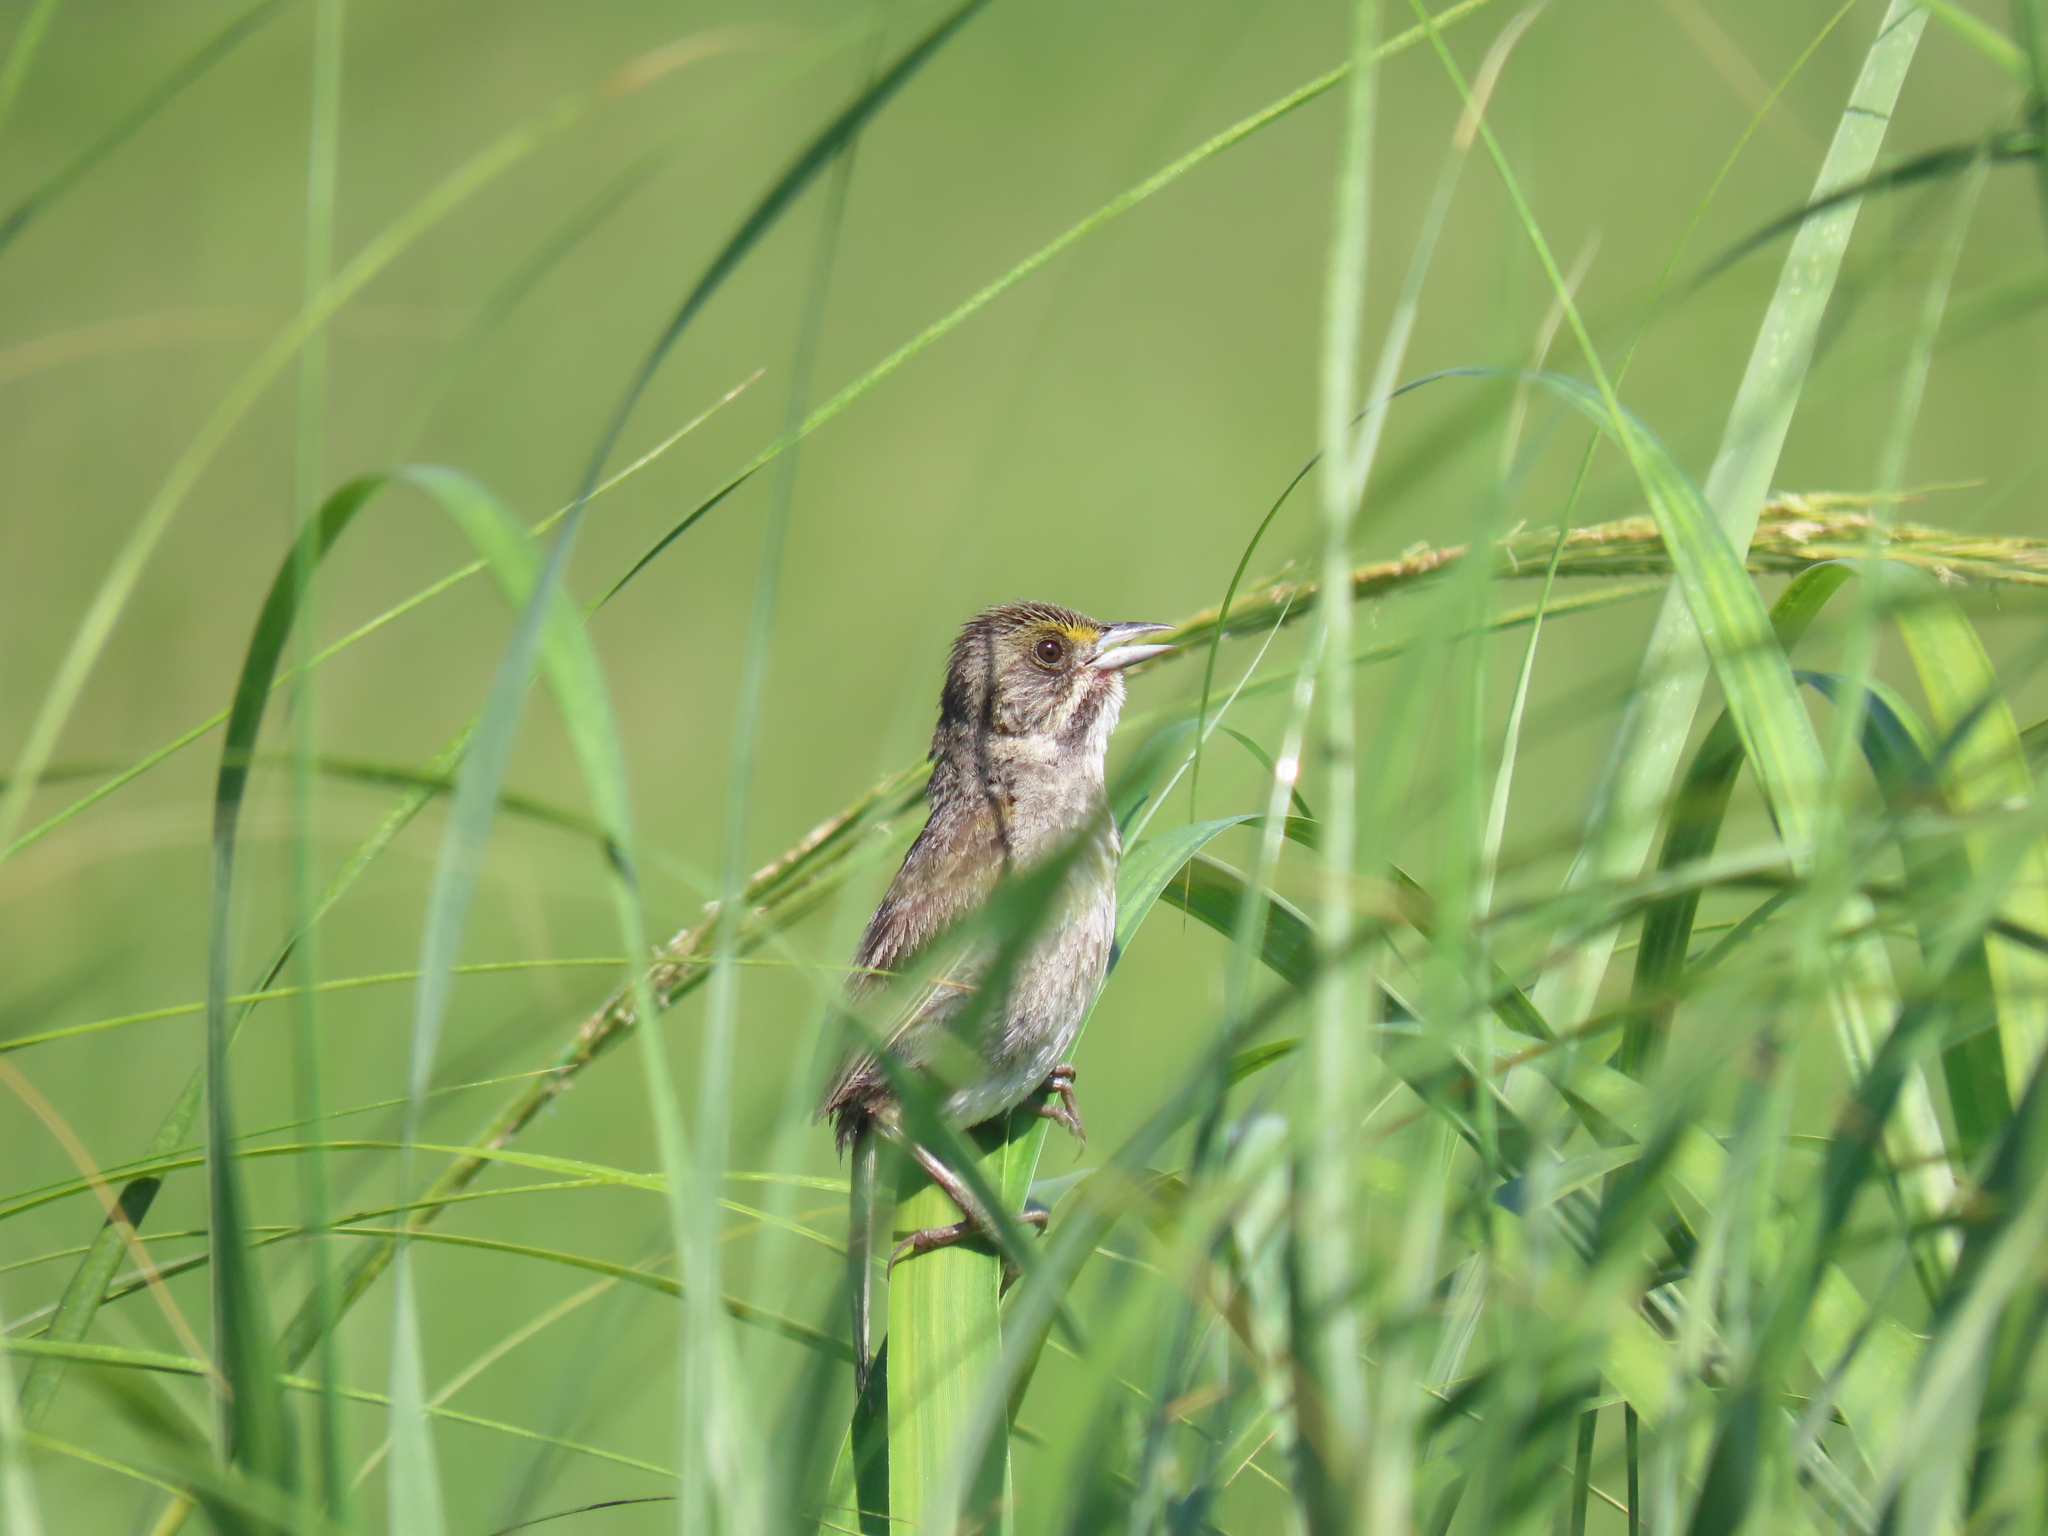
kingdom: Animalia
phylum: Chordata
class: Aves
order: Passeriformes
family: Passerellidae
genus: Ammospiza
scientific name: Ammospiza maritima
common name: Seaside sparrow
